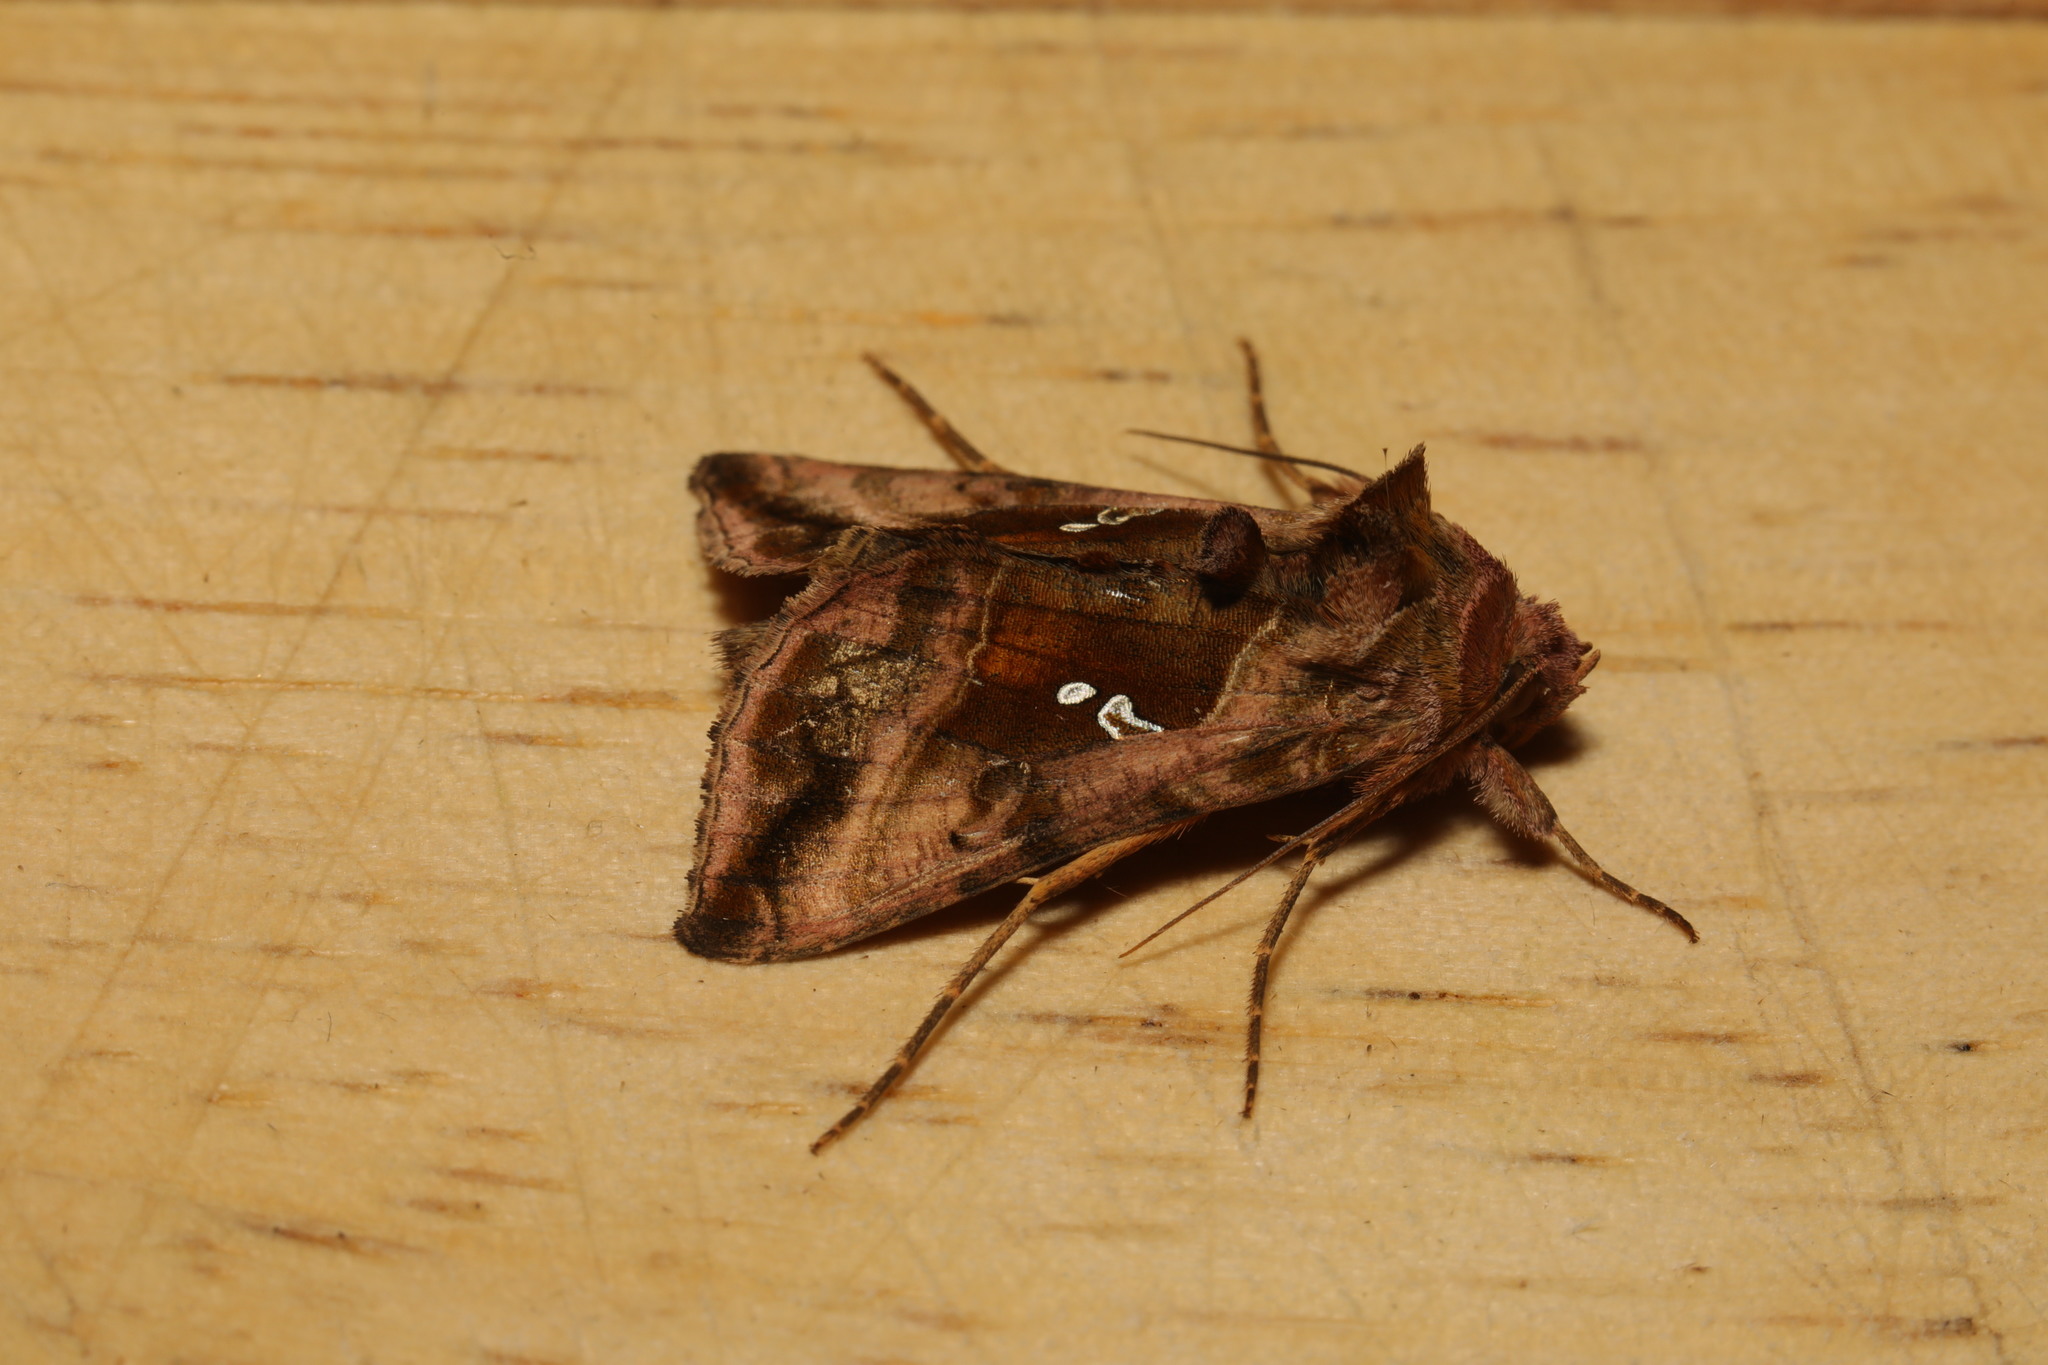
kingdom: Animalia
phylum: Arthropoda
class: Insecta
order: Lepidoptera
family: Noctuidae
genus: Autographa
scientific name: Autographa jota
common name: Plain golden y
